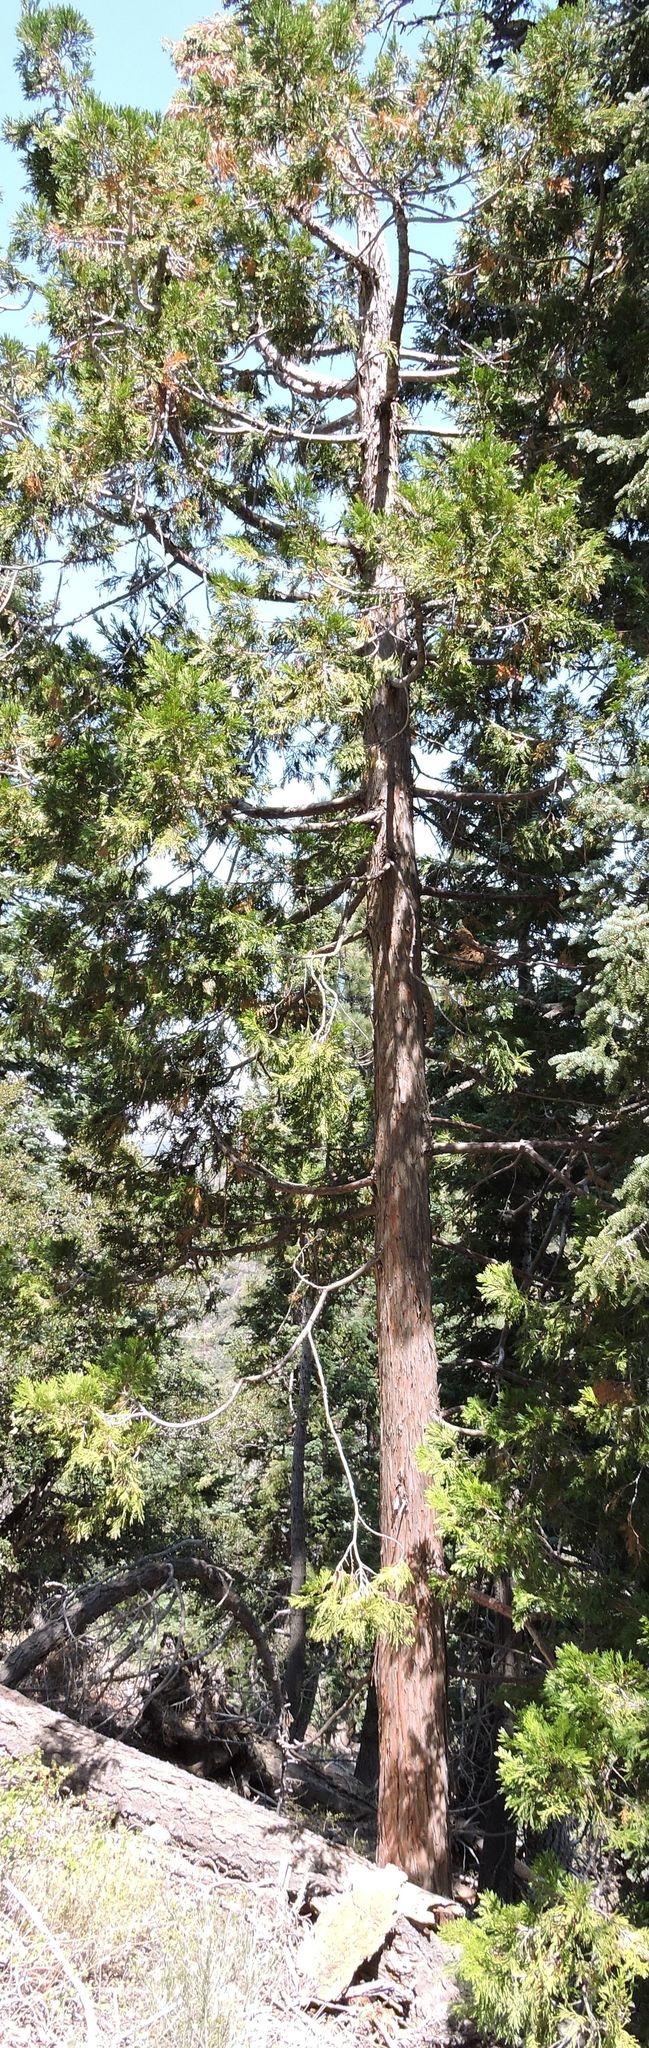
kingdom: Plantae
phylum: Tracheophyta
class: Pinopsida
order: Pinales
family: Cupressaceae
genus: Calocedrus
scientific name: Calocedrus decurrens
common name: Californian incense-cedar
